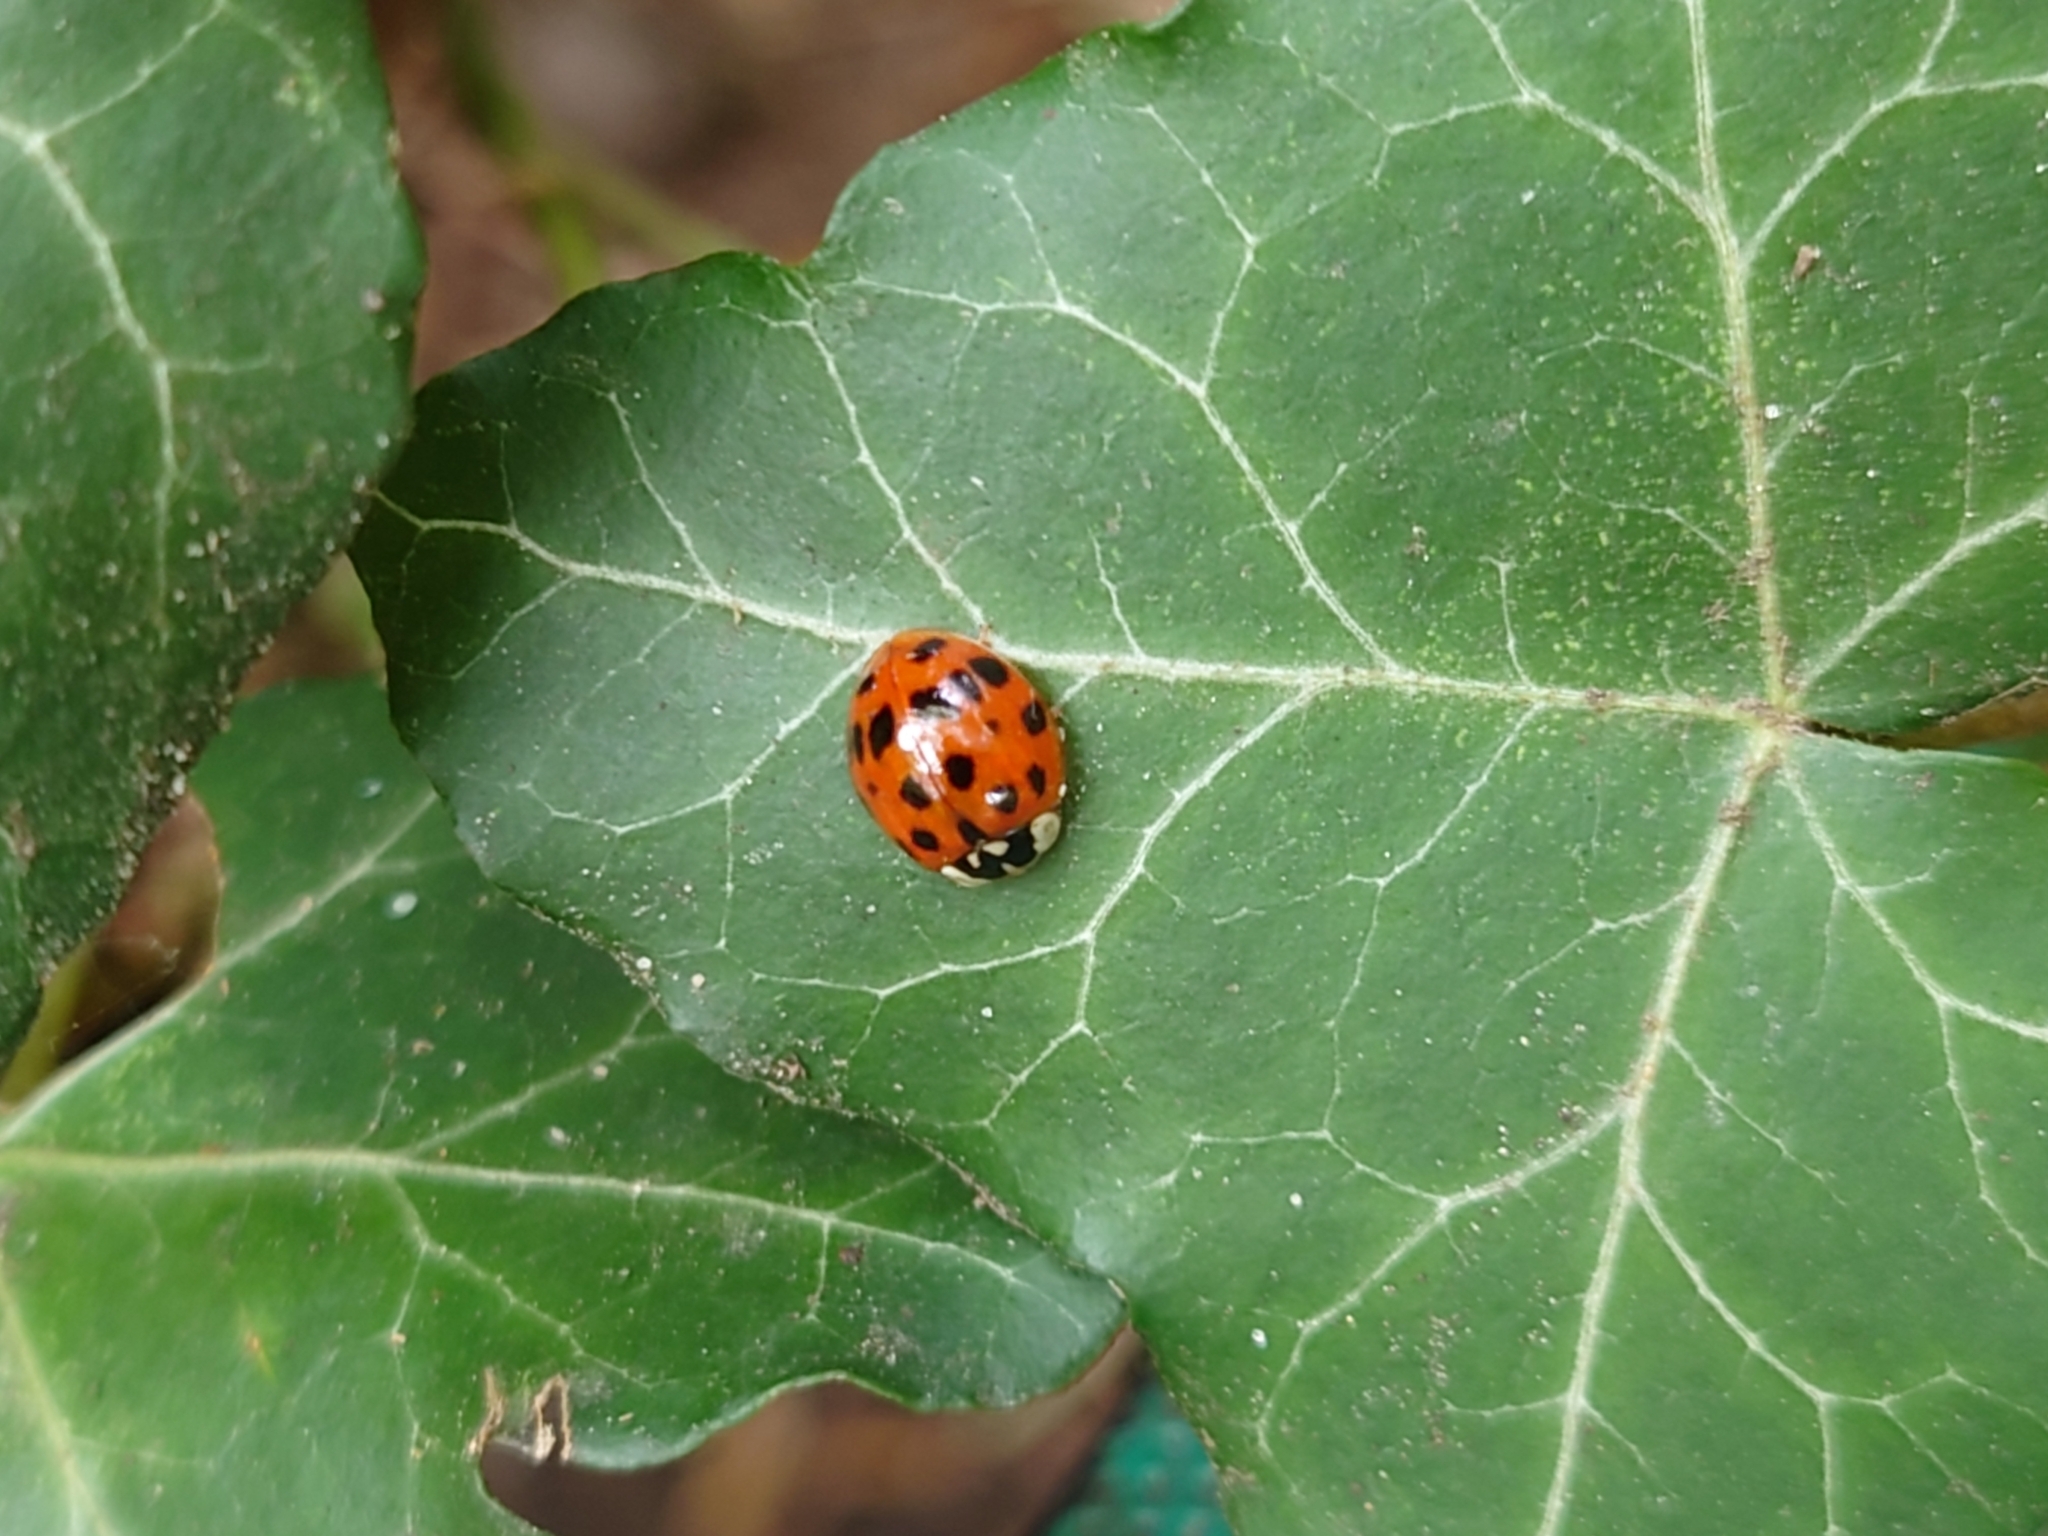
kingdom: Animalia
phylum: Arthropoda
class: Insecta
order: Coleoptera
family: Coccinellidae
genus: Harmonia
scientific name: Harmonia axyridis
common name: Harlequin ladybird
